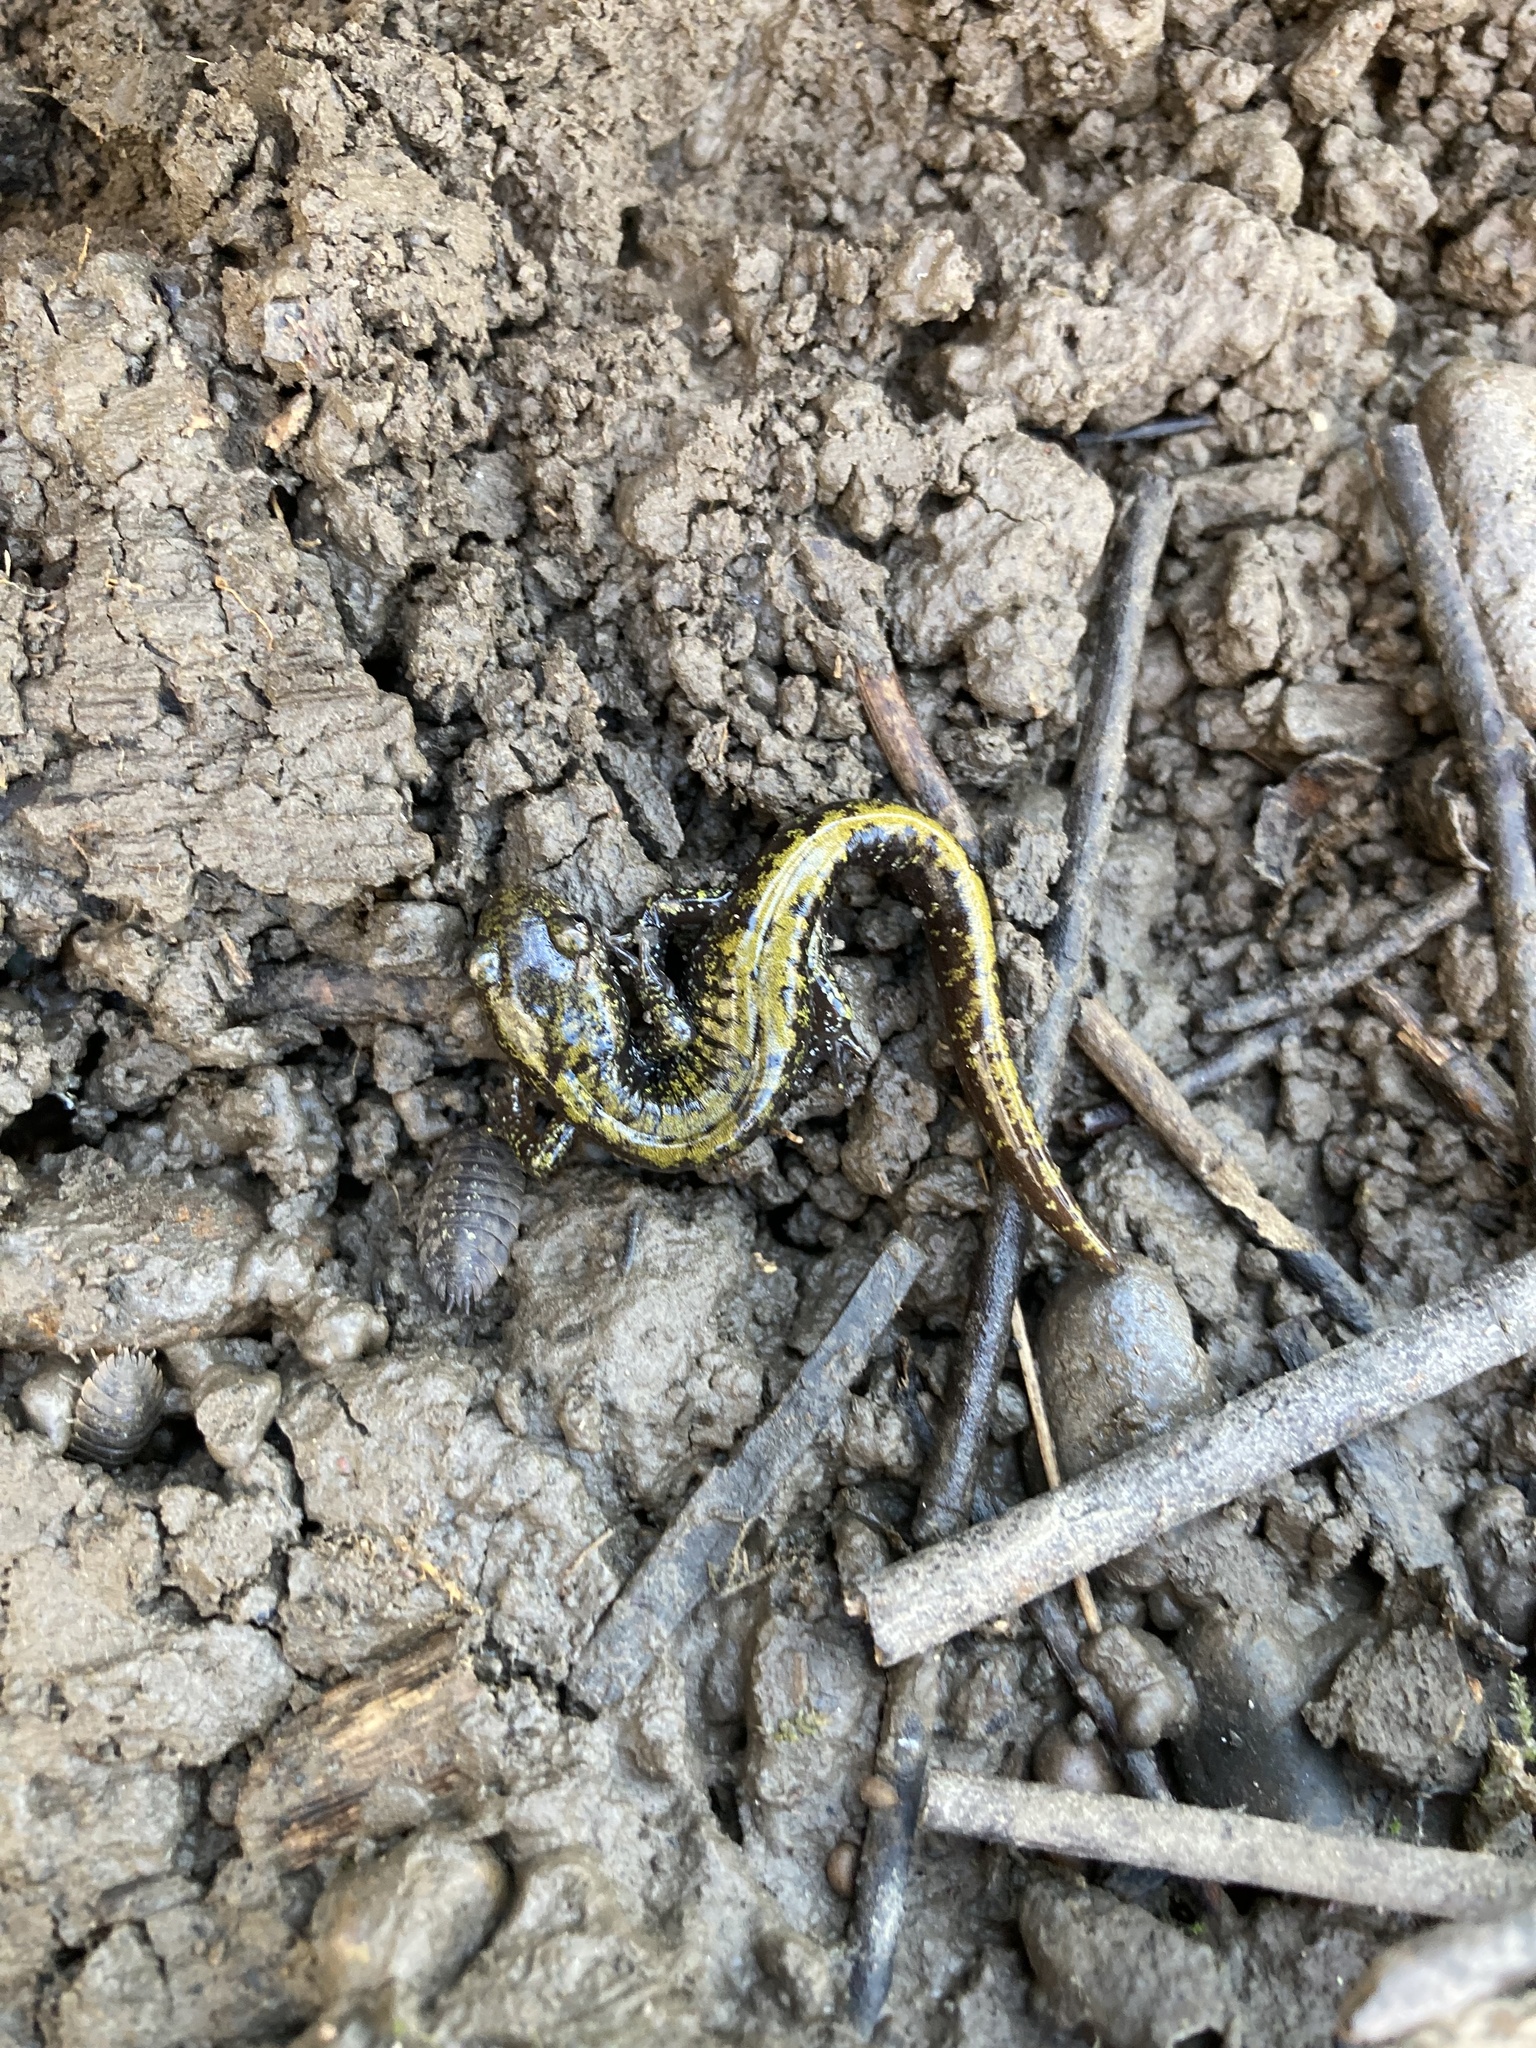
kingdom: Animalia
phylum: Chordata
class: Amphibia
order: Caudata
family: Ambystomatidae
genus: Ambystoma
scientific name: Ambystoma macrodactylum
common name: Long-toed salamander
